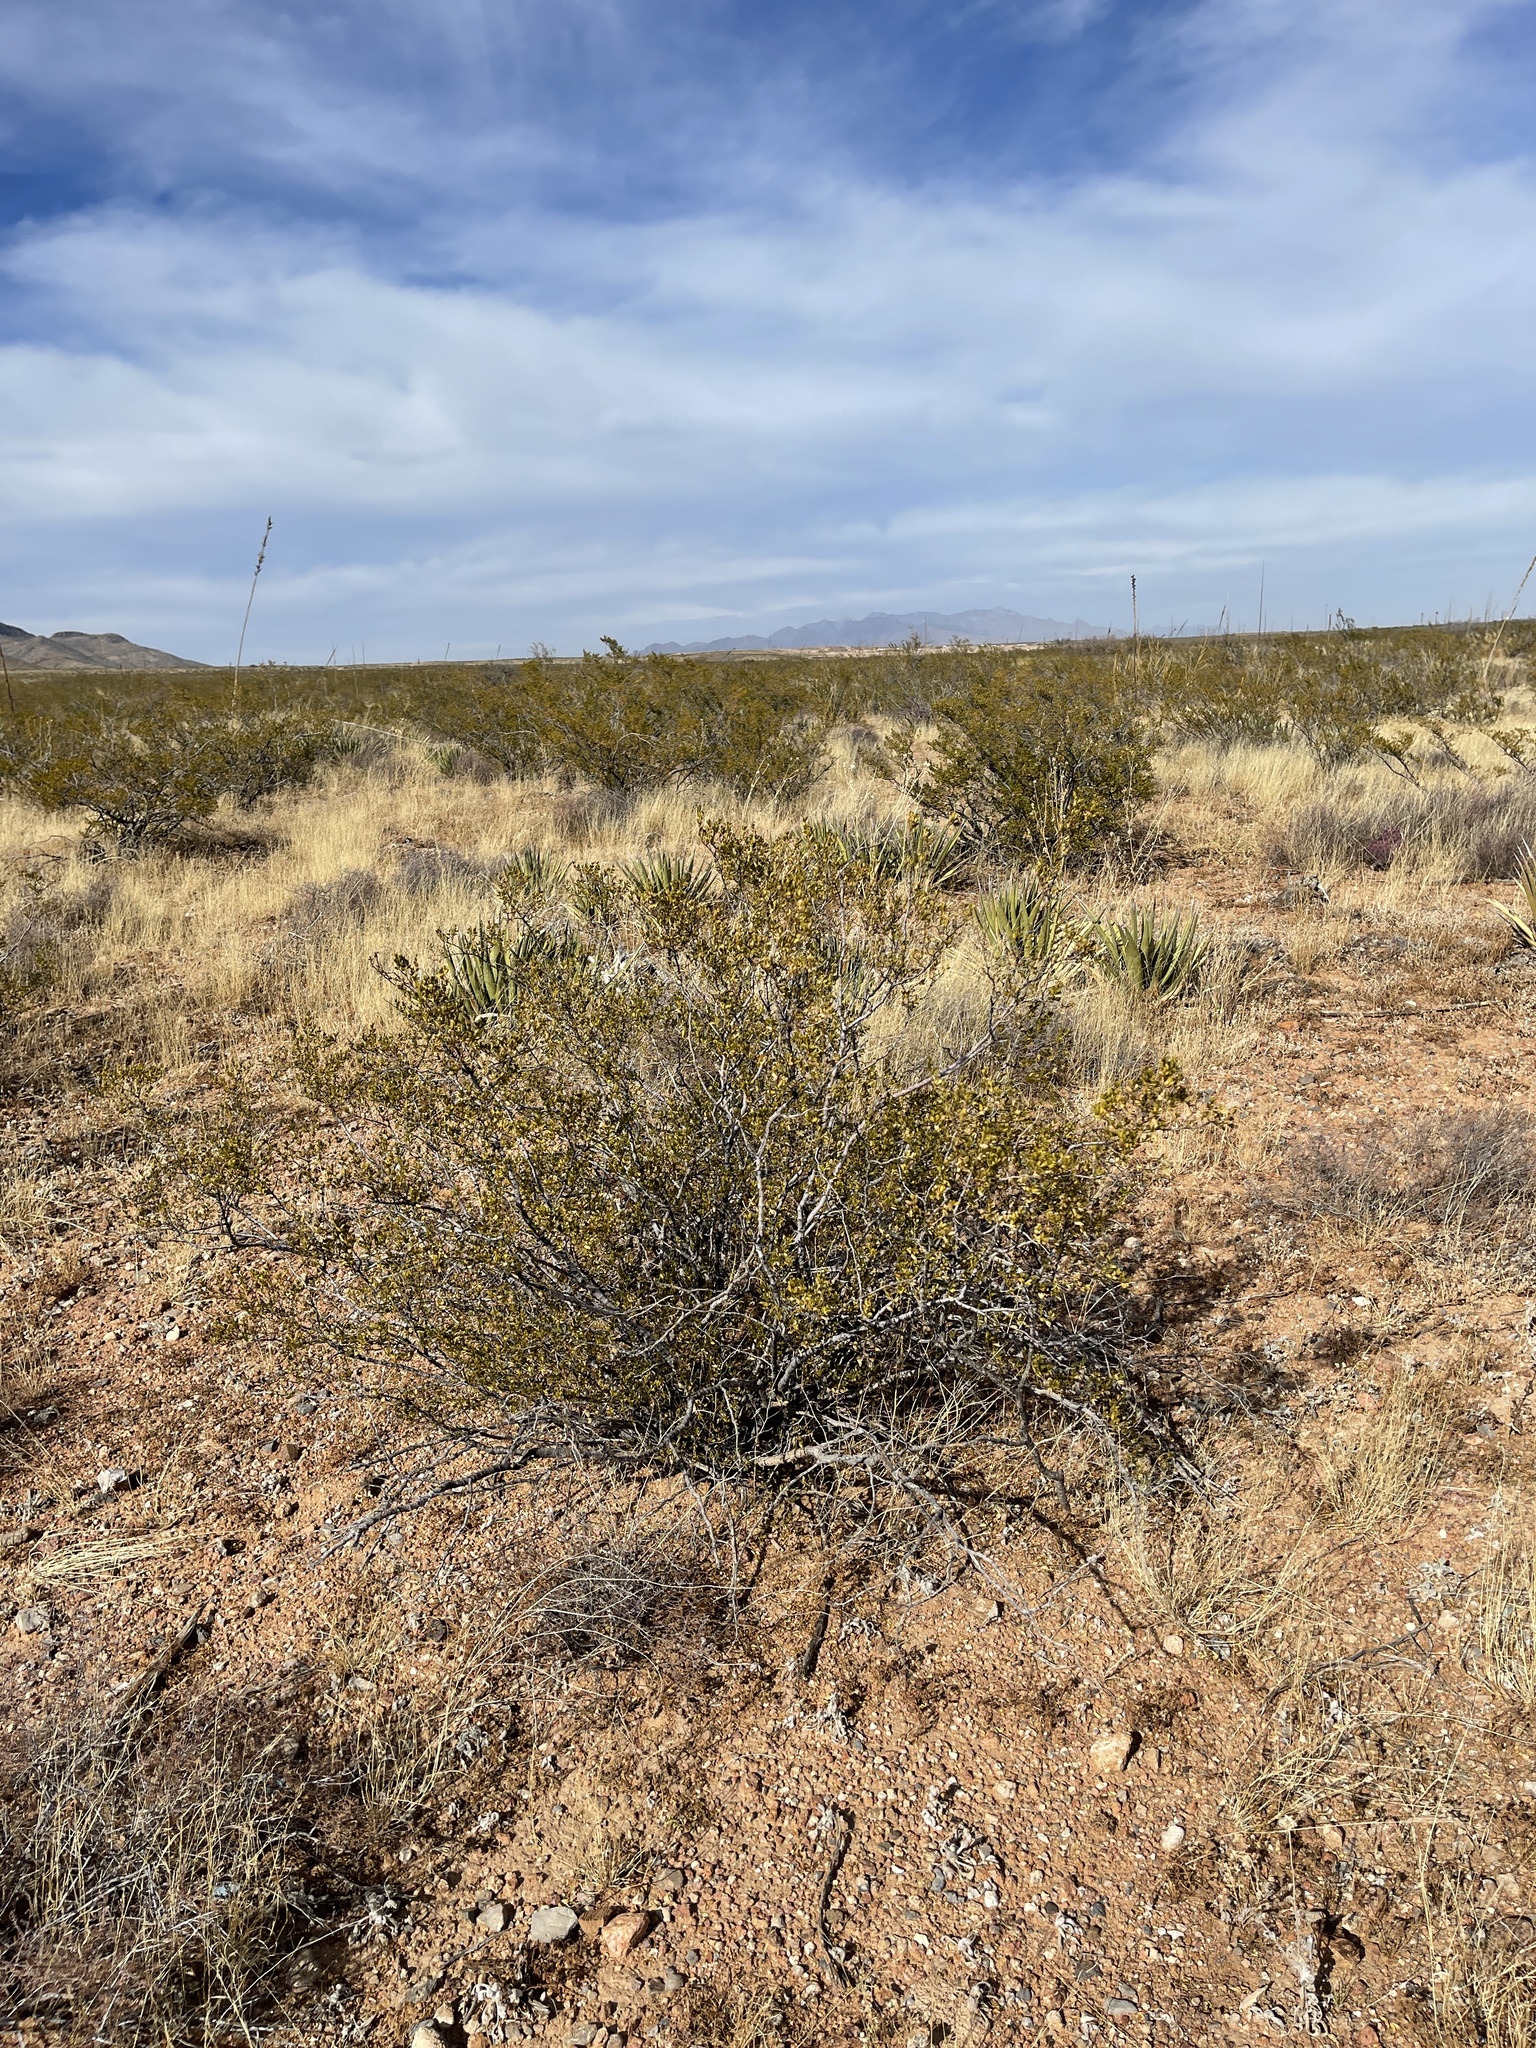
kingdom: Plantae
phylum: Tracheophyta
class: Magnoliopsida
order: Zygophyllales
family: Zygophyllaceae
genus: Larrea
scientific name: Larrea tridentata
